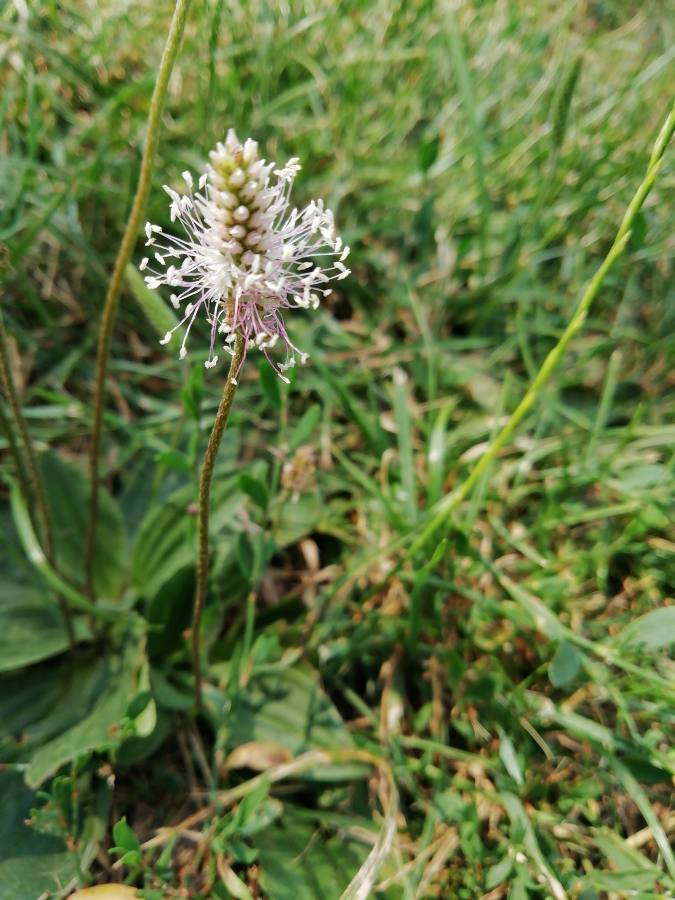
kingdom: Plantae
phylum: Tracheophyta
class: Magnoliopsida
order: Lamiales
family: Plantaginaceae
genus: Plantago
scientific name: Plantago media
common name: Hoary plantain
